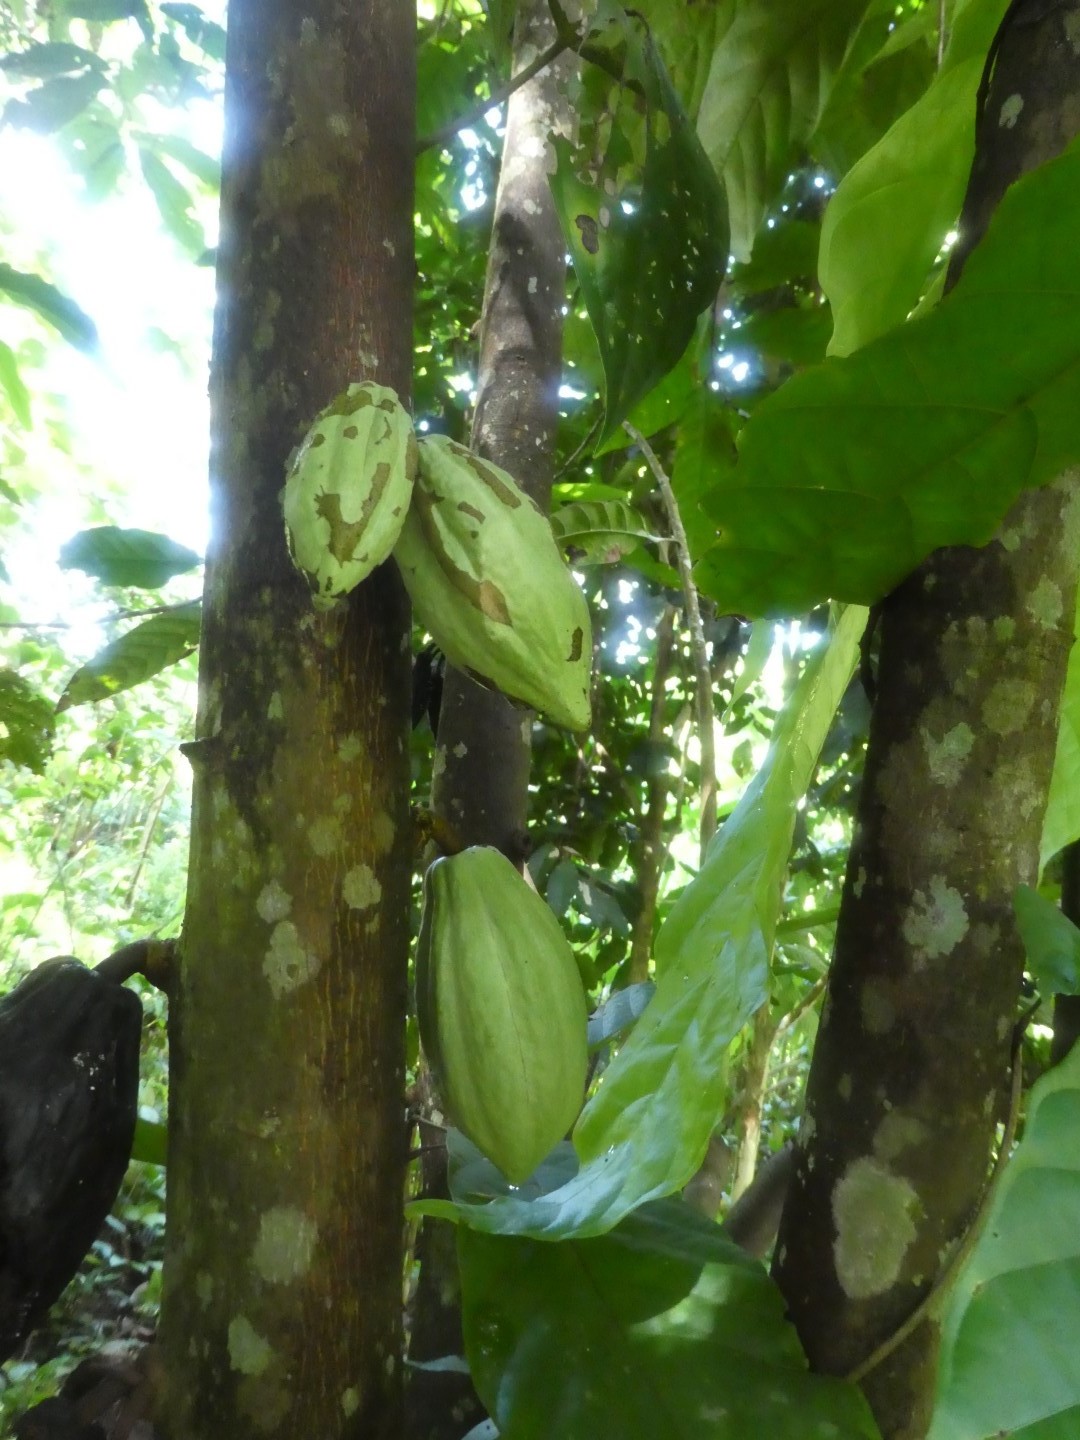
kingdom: Plantae
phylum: Tracheophyta
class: Magnoliopsida
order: Malvales
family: Malvaceae
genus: Theobroma
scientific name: Theobroma cacao
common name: Cocoa
